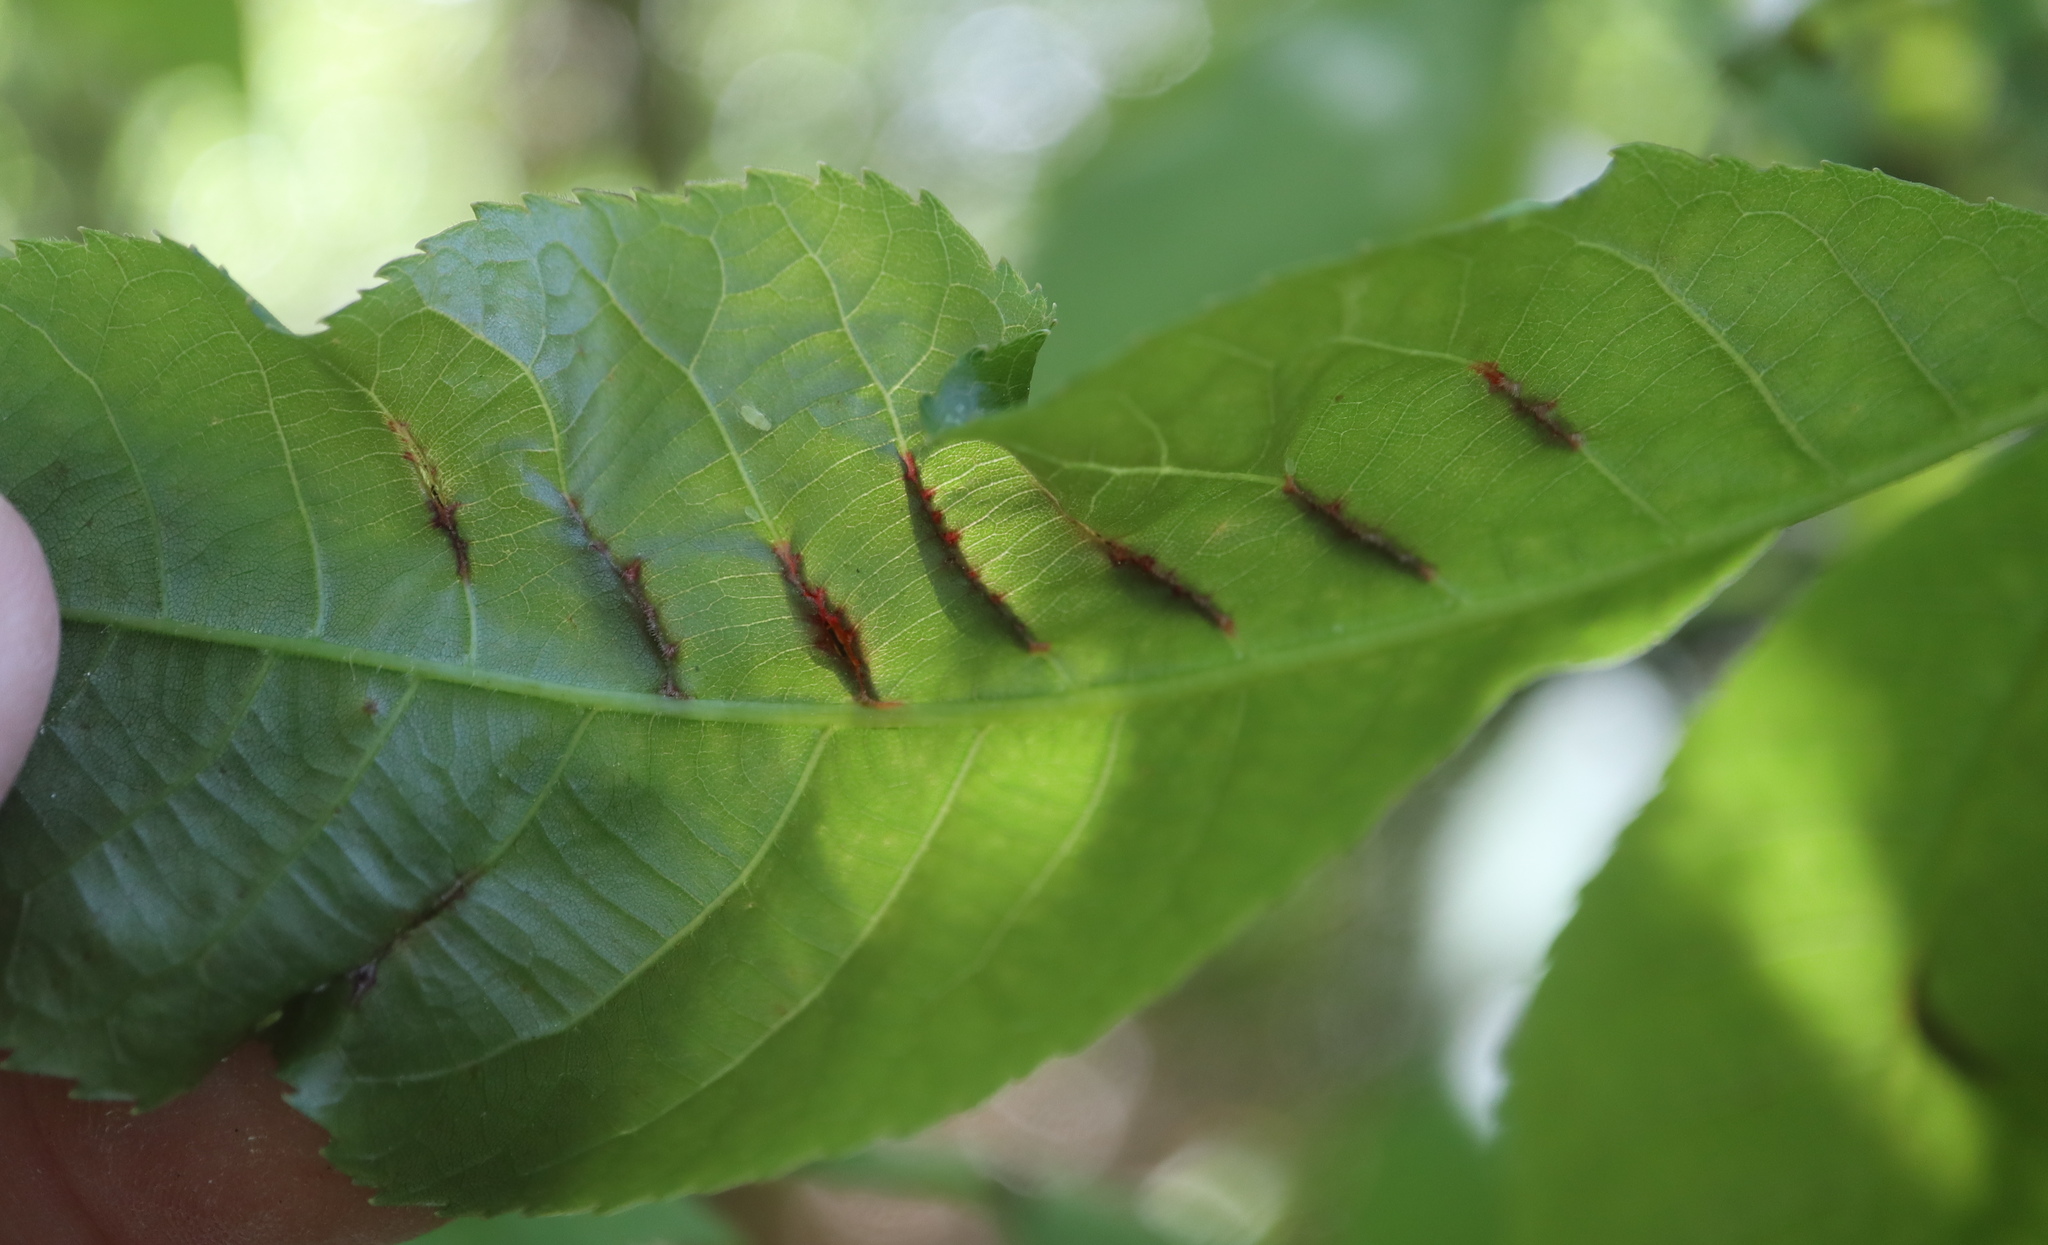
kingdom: Animalia
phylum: Arthropoda
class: Insecta
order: Hemiptera
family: Phylloxeridae
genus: Phylloxera
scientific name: Phylloxera caryaevenae
